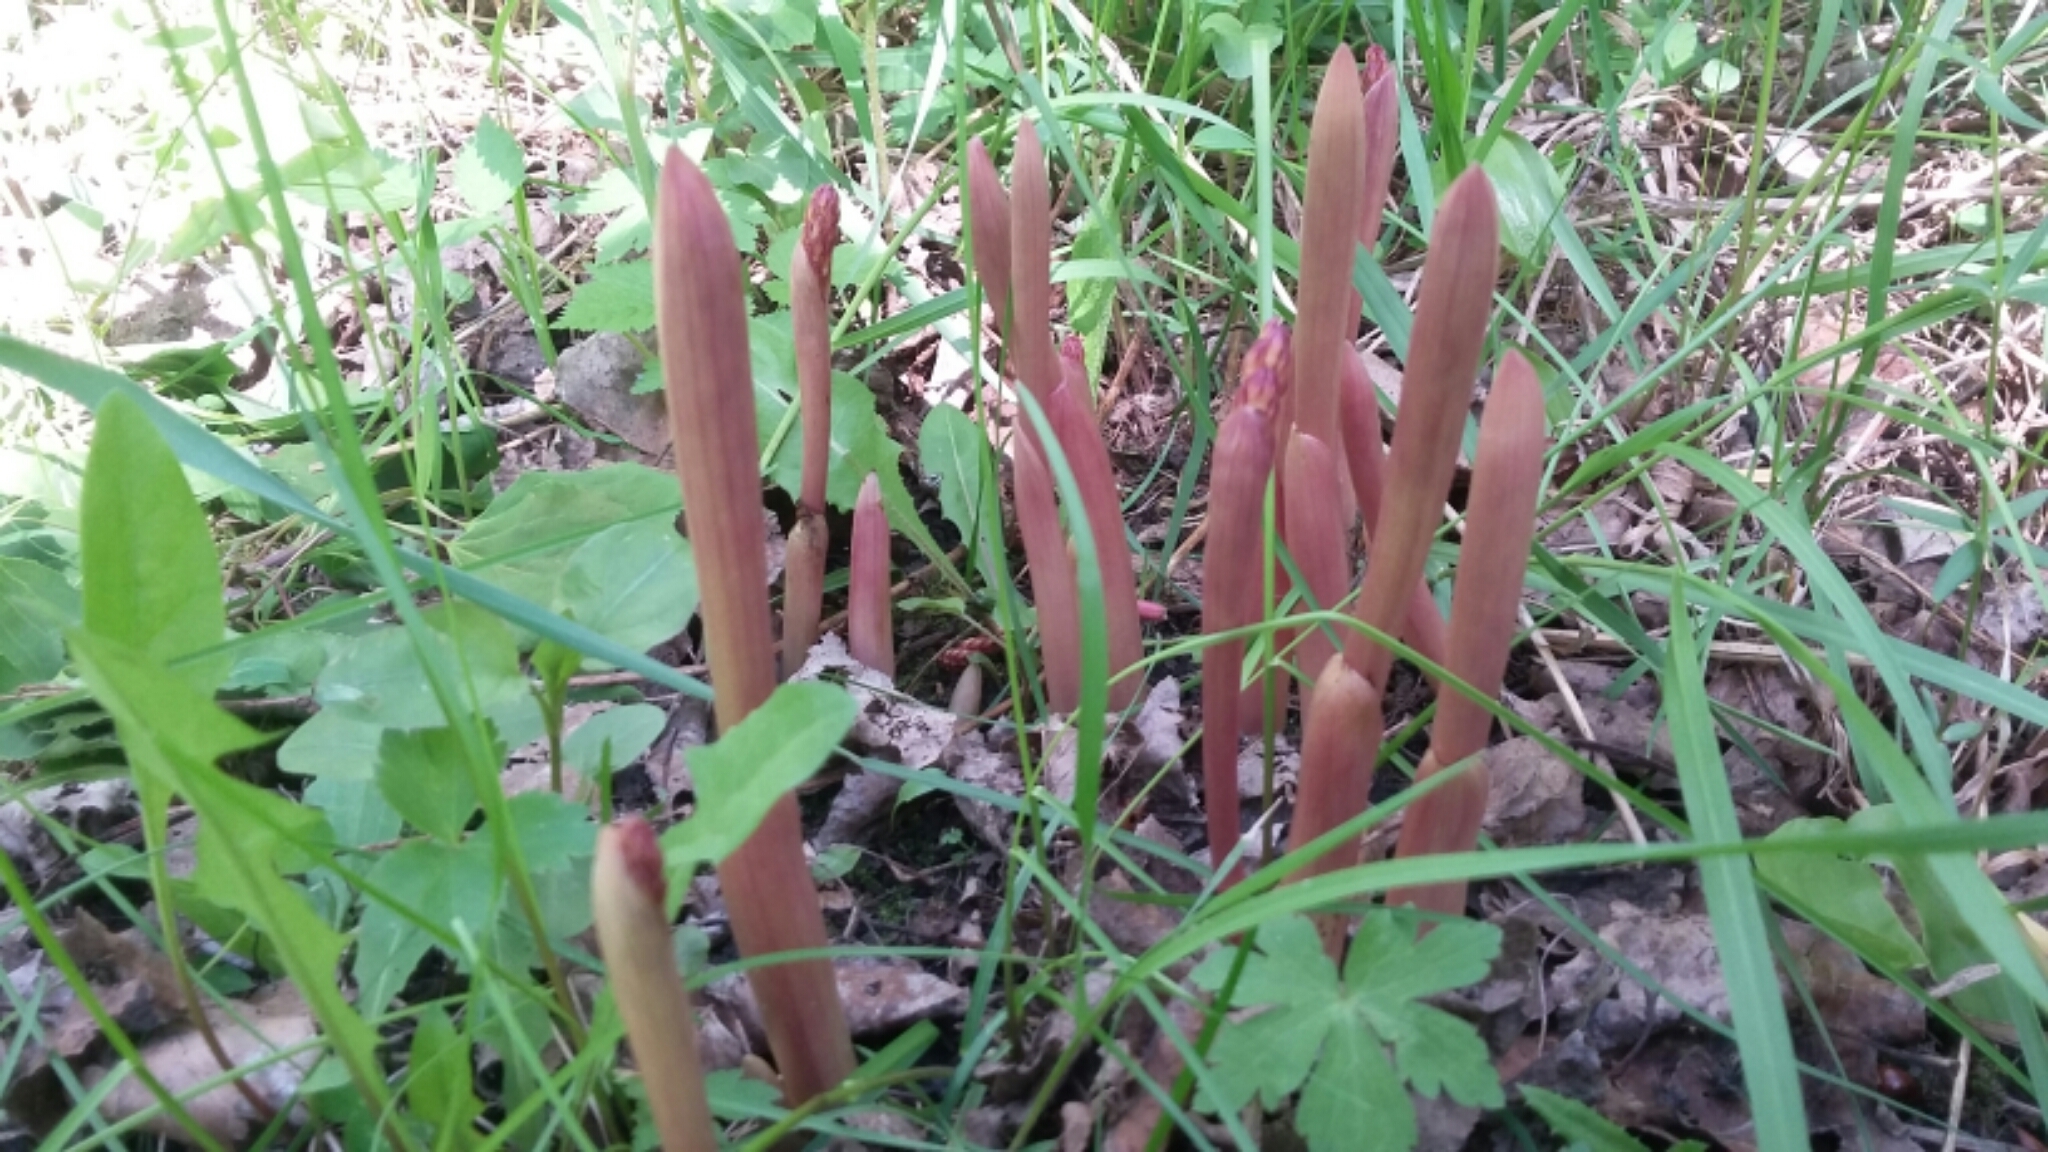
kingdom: Plantae
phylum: Tracheophyta
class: Liliopsida
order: Asparagales
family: Orchidaceae
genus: Corallorhiza
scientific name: Corallorhiza maculata
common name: Spotted coralroot
